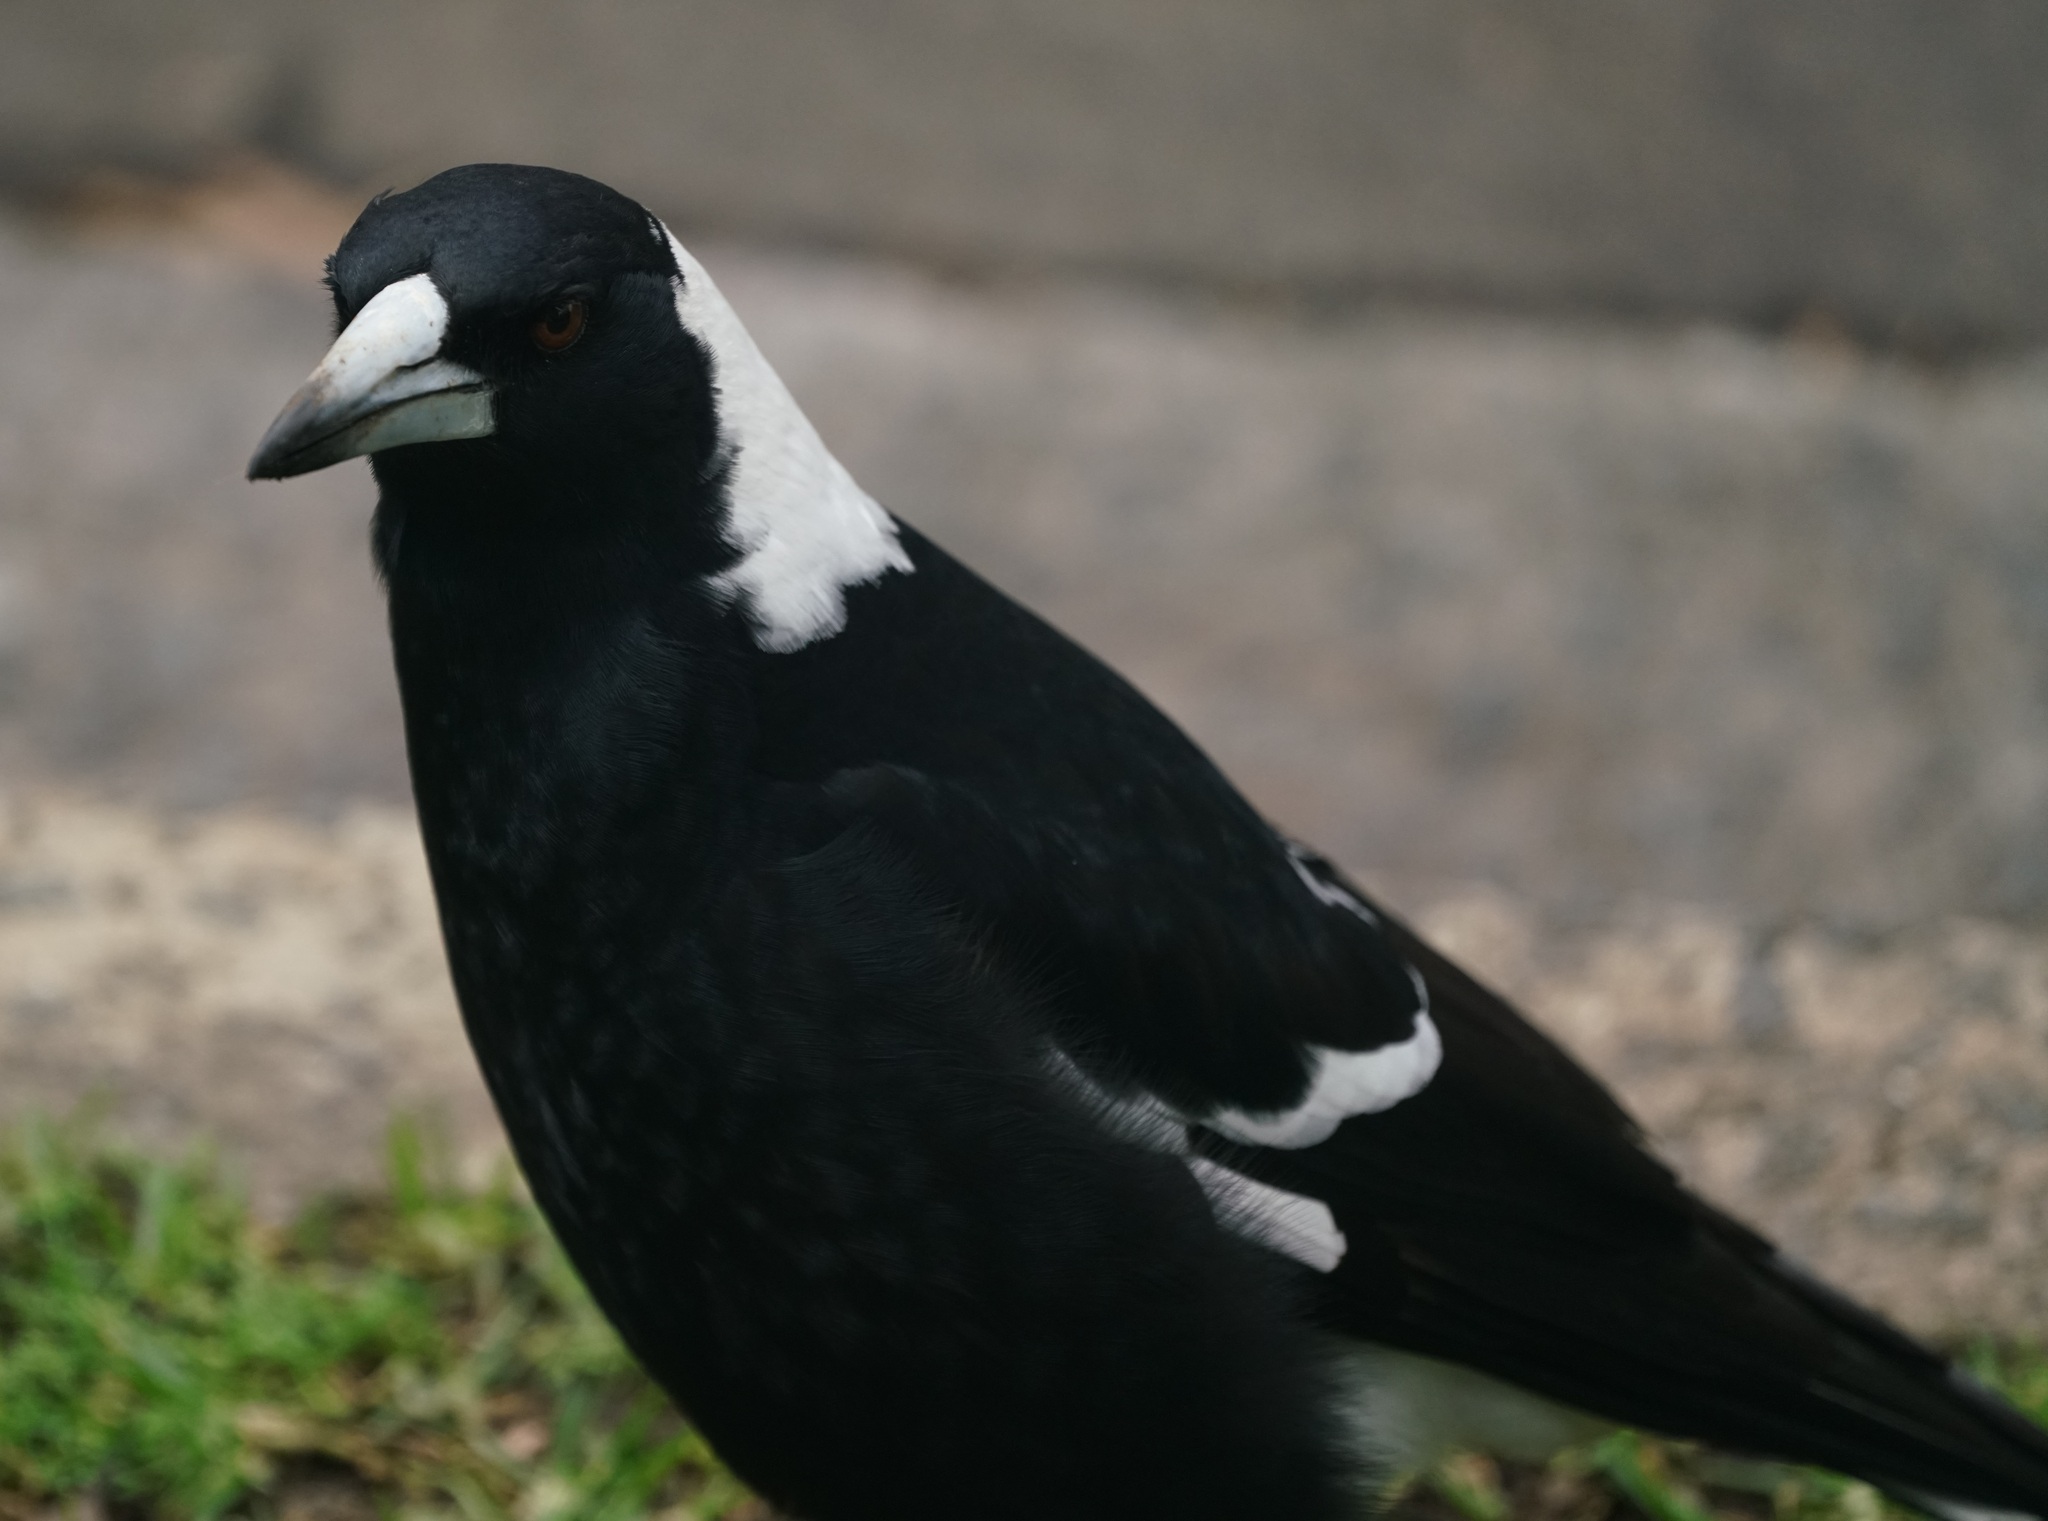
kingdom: Animalia
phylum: Chordata
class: Aves
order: Passeriformes
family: Cracticidae
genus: Gymnorhina
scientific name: Gymnorhina tibicen
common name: Australian magpie
